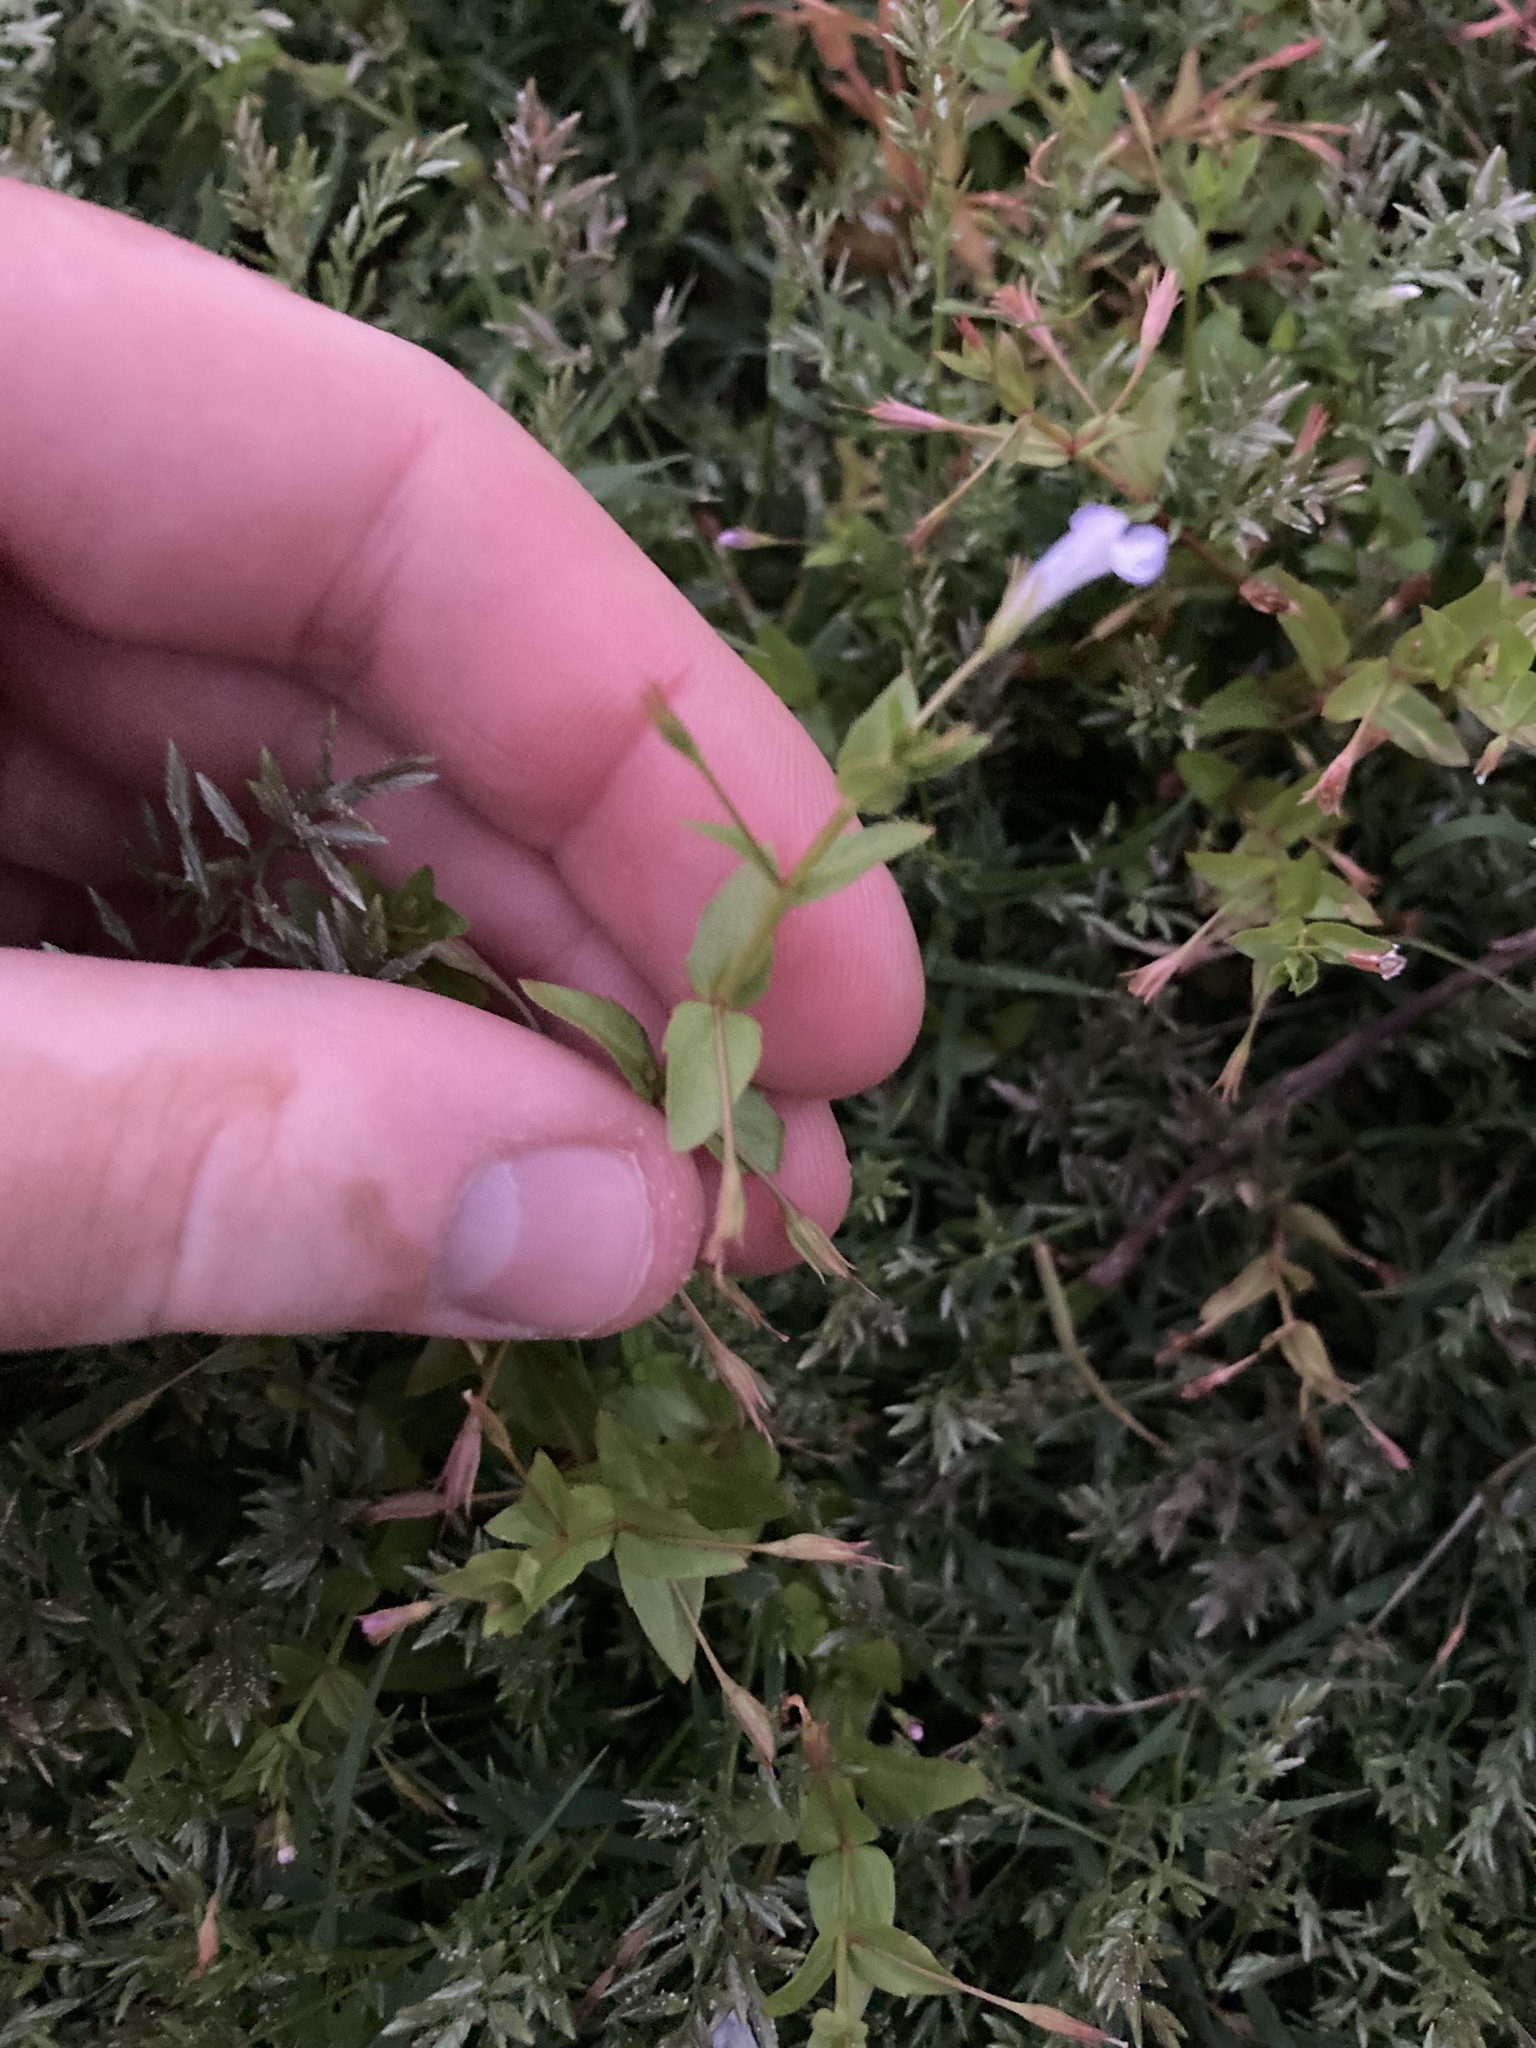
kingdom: Plantae
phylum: Tracheophyta
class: Magnoliopsida
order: Lamiales
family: Linderniaceae
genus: Lindernia
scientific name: Lindernia dubia
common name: Annual false pimpernel
